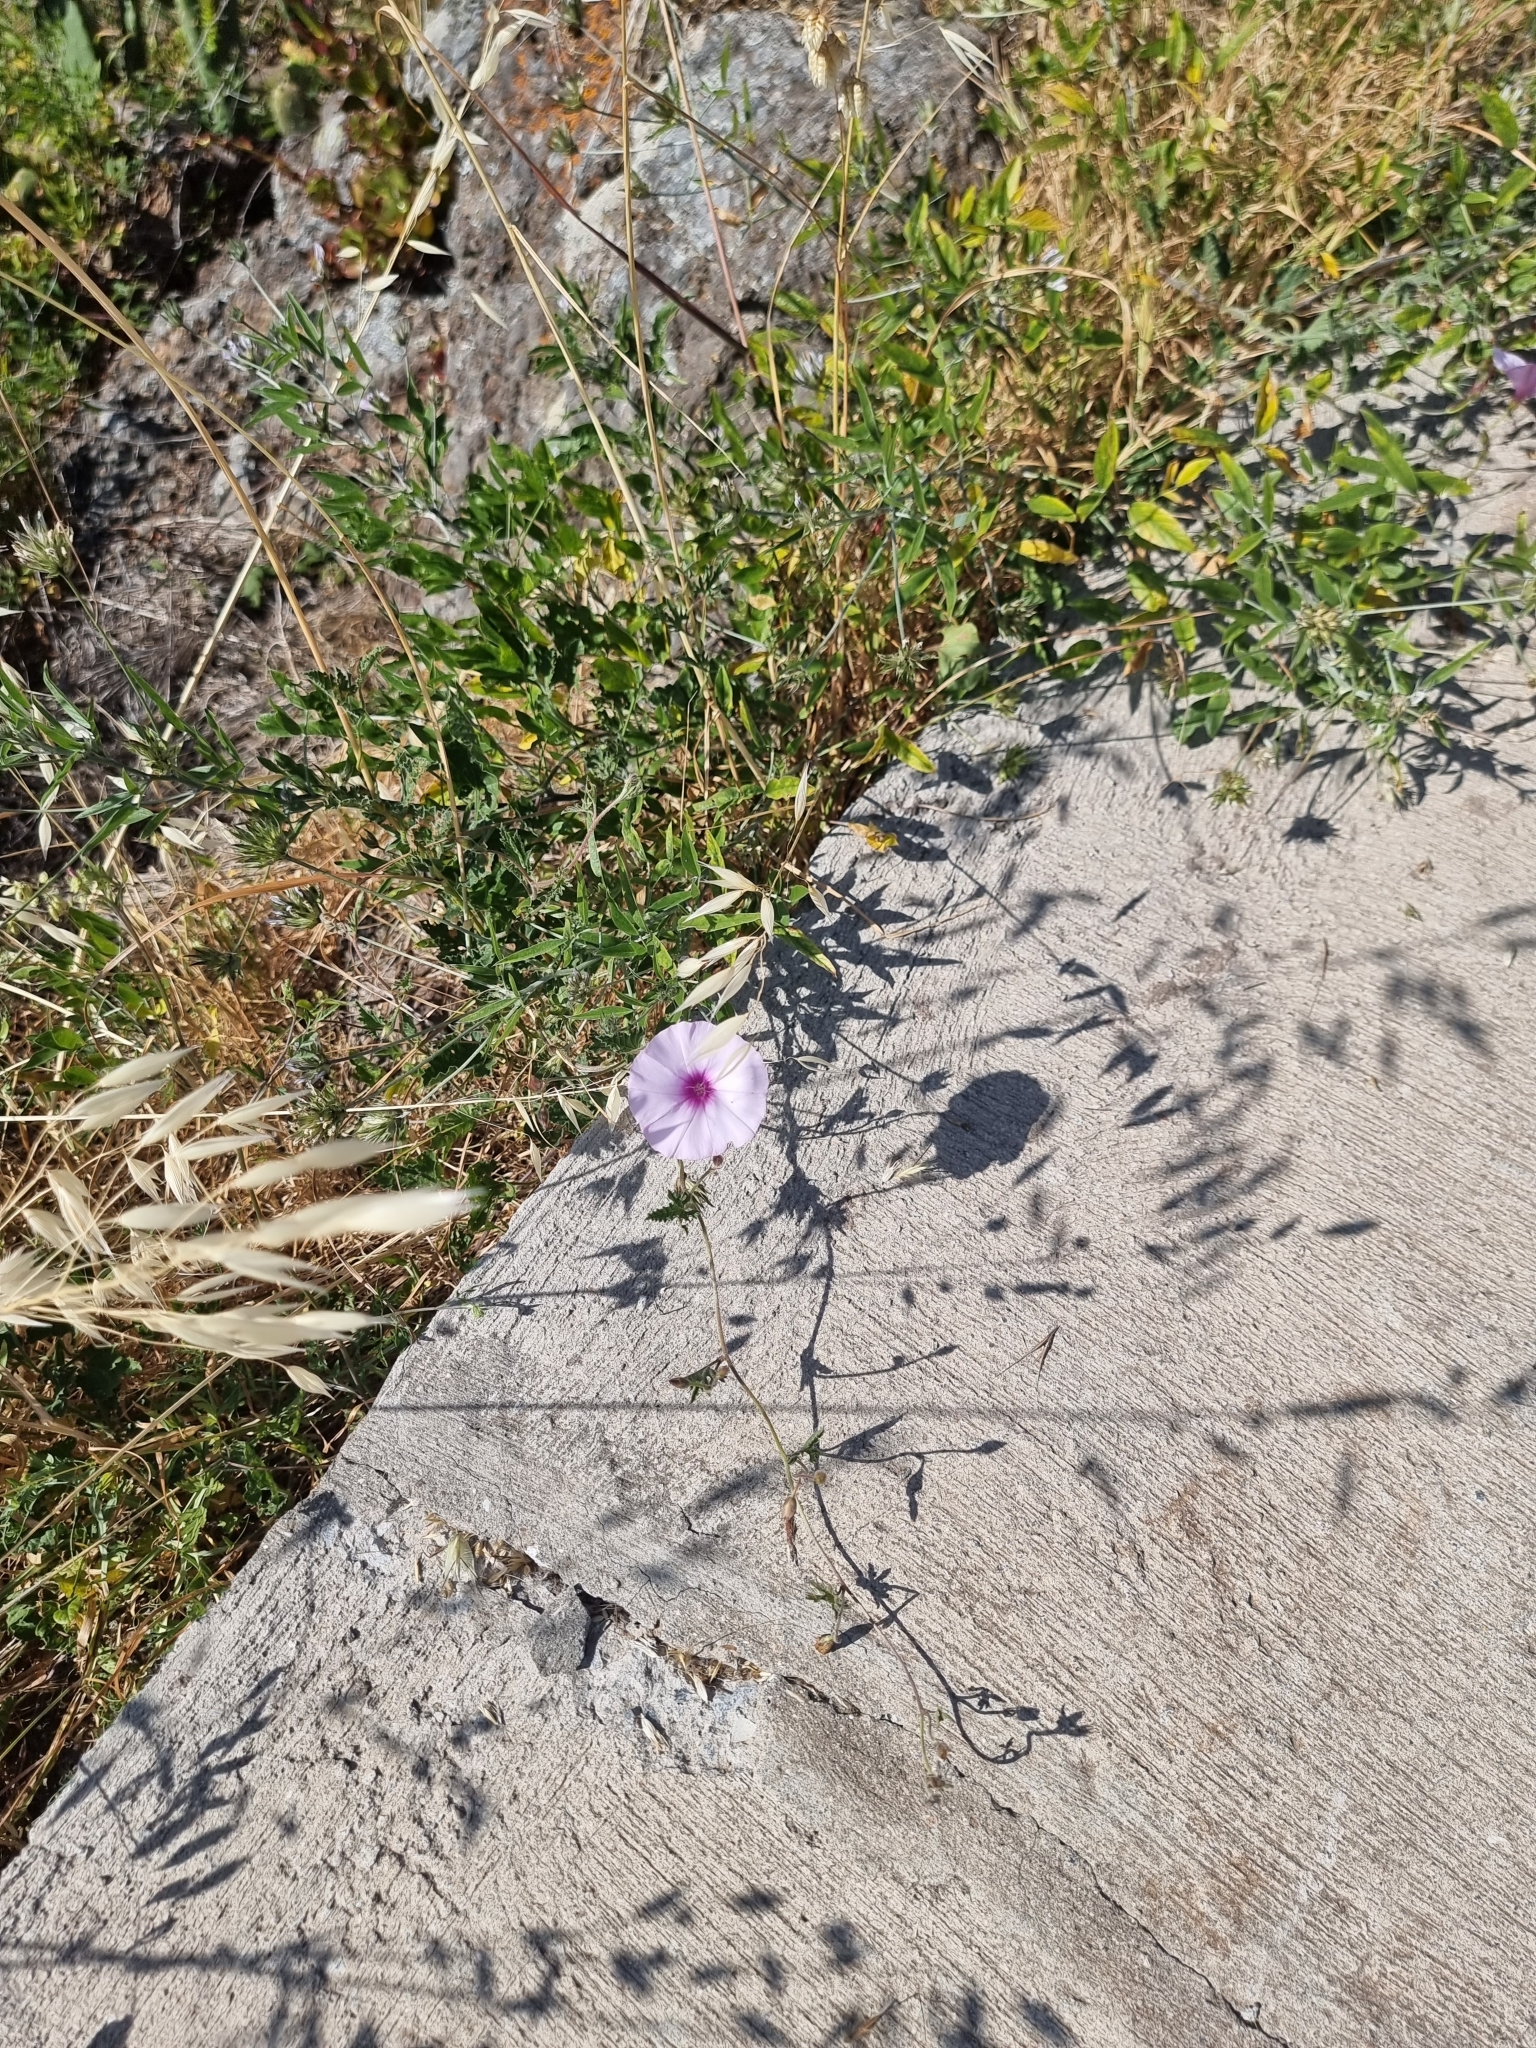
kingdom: Plantae
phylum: Tracheophyta
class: Magnoliopsida
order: Solanales
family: Convolvulaceae
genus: Convolvulus
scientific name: Convolvulus althaeoides
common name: Mallow bindweed
